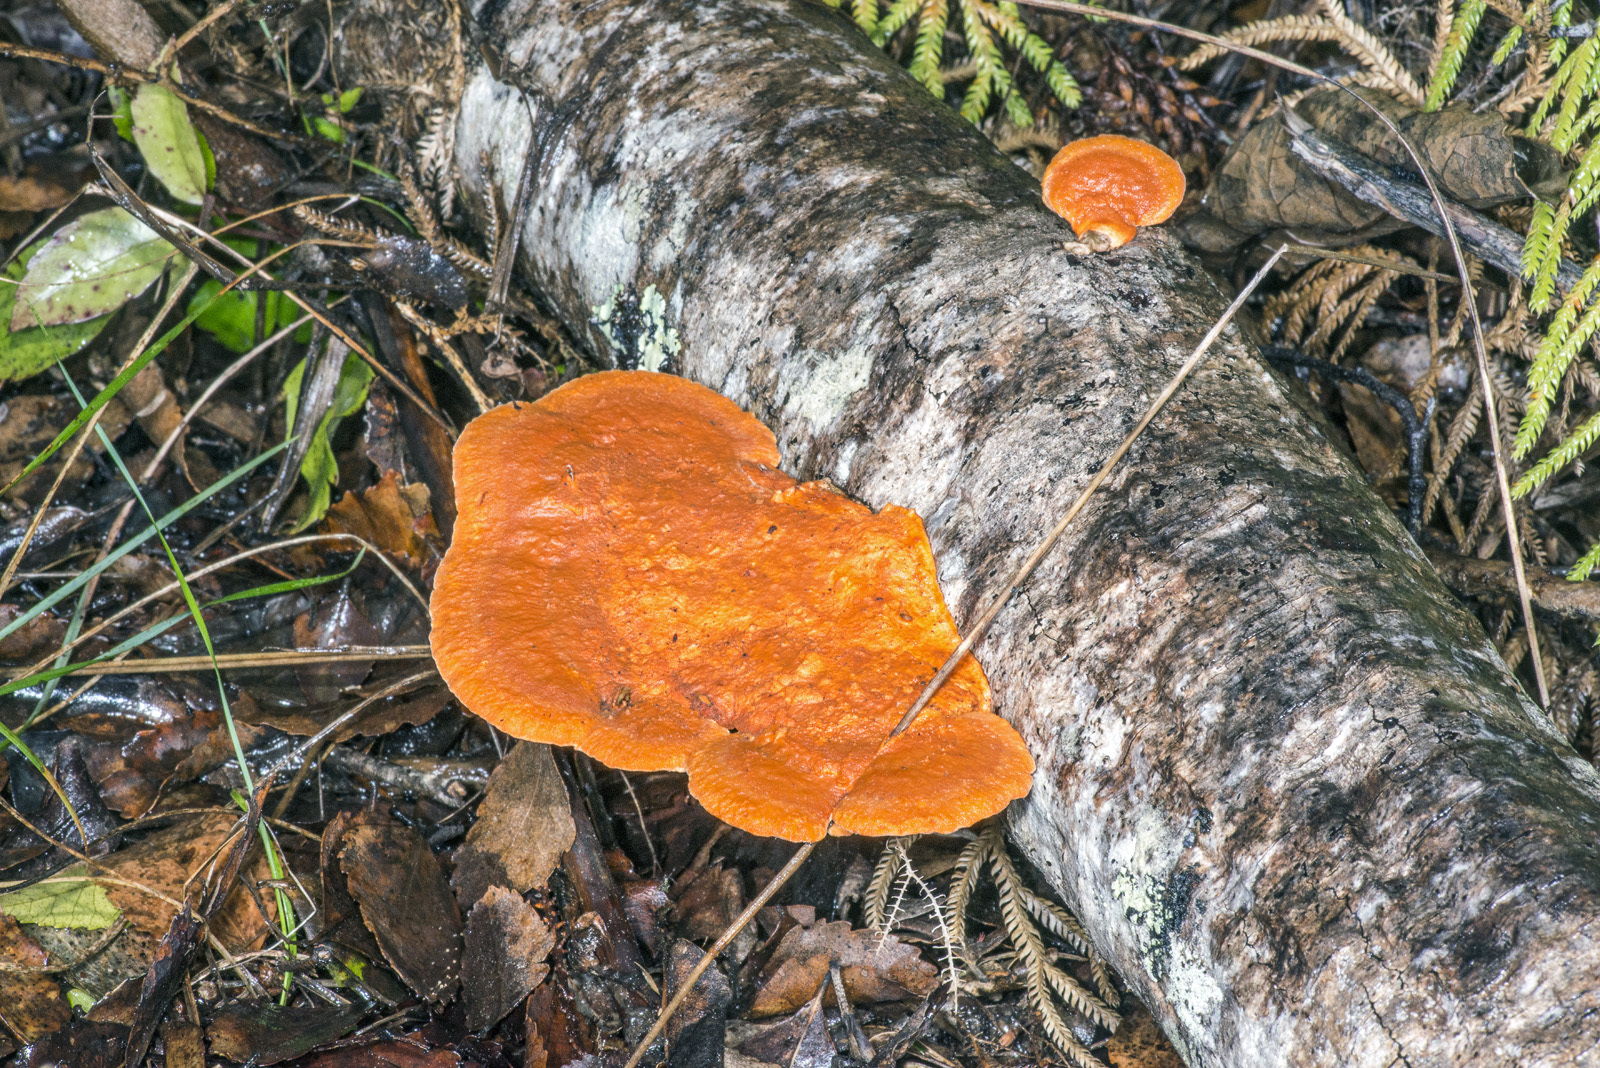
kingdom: Fungi
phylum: Basidiomycota
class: Agaricomycetes
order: Polyporales
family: Polyporaceae
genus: Trametes
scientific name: Trametes coccinea
